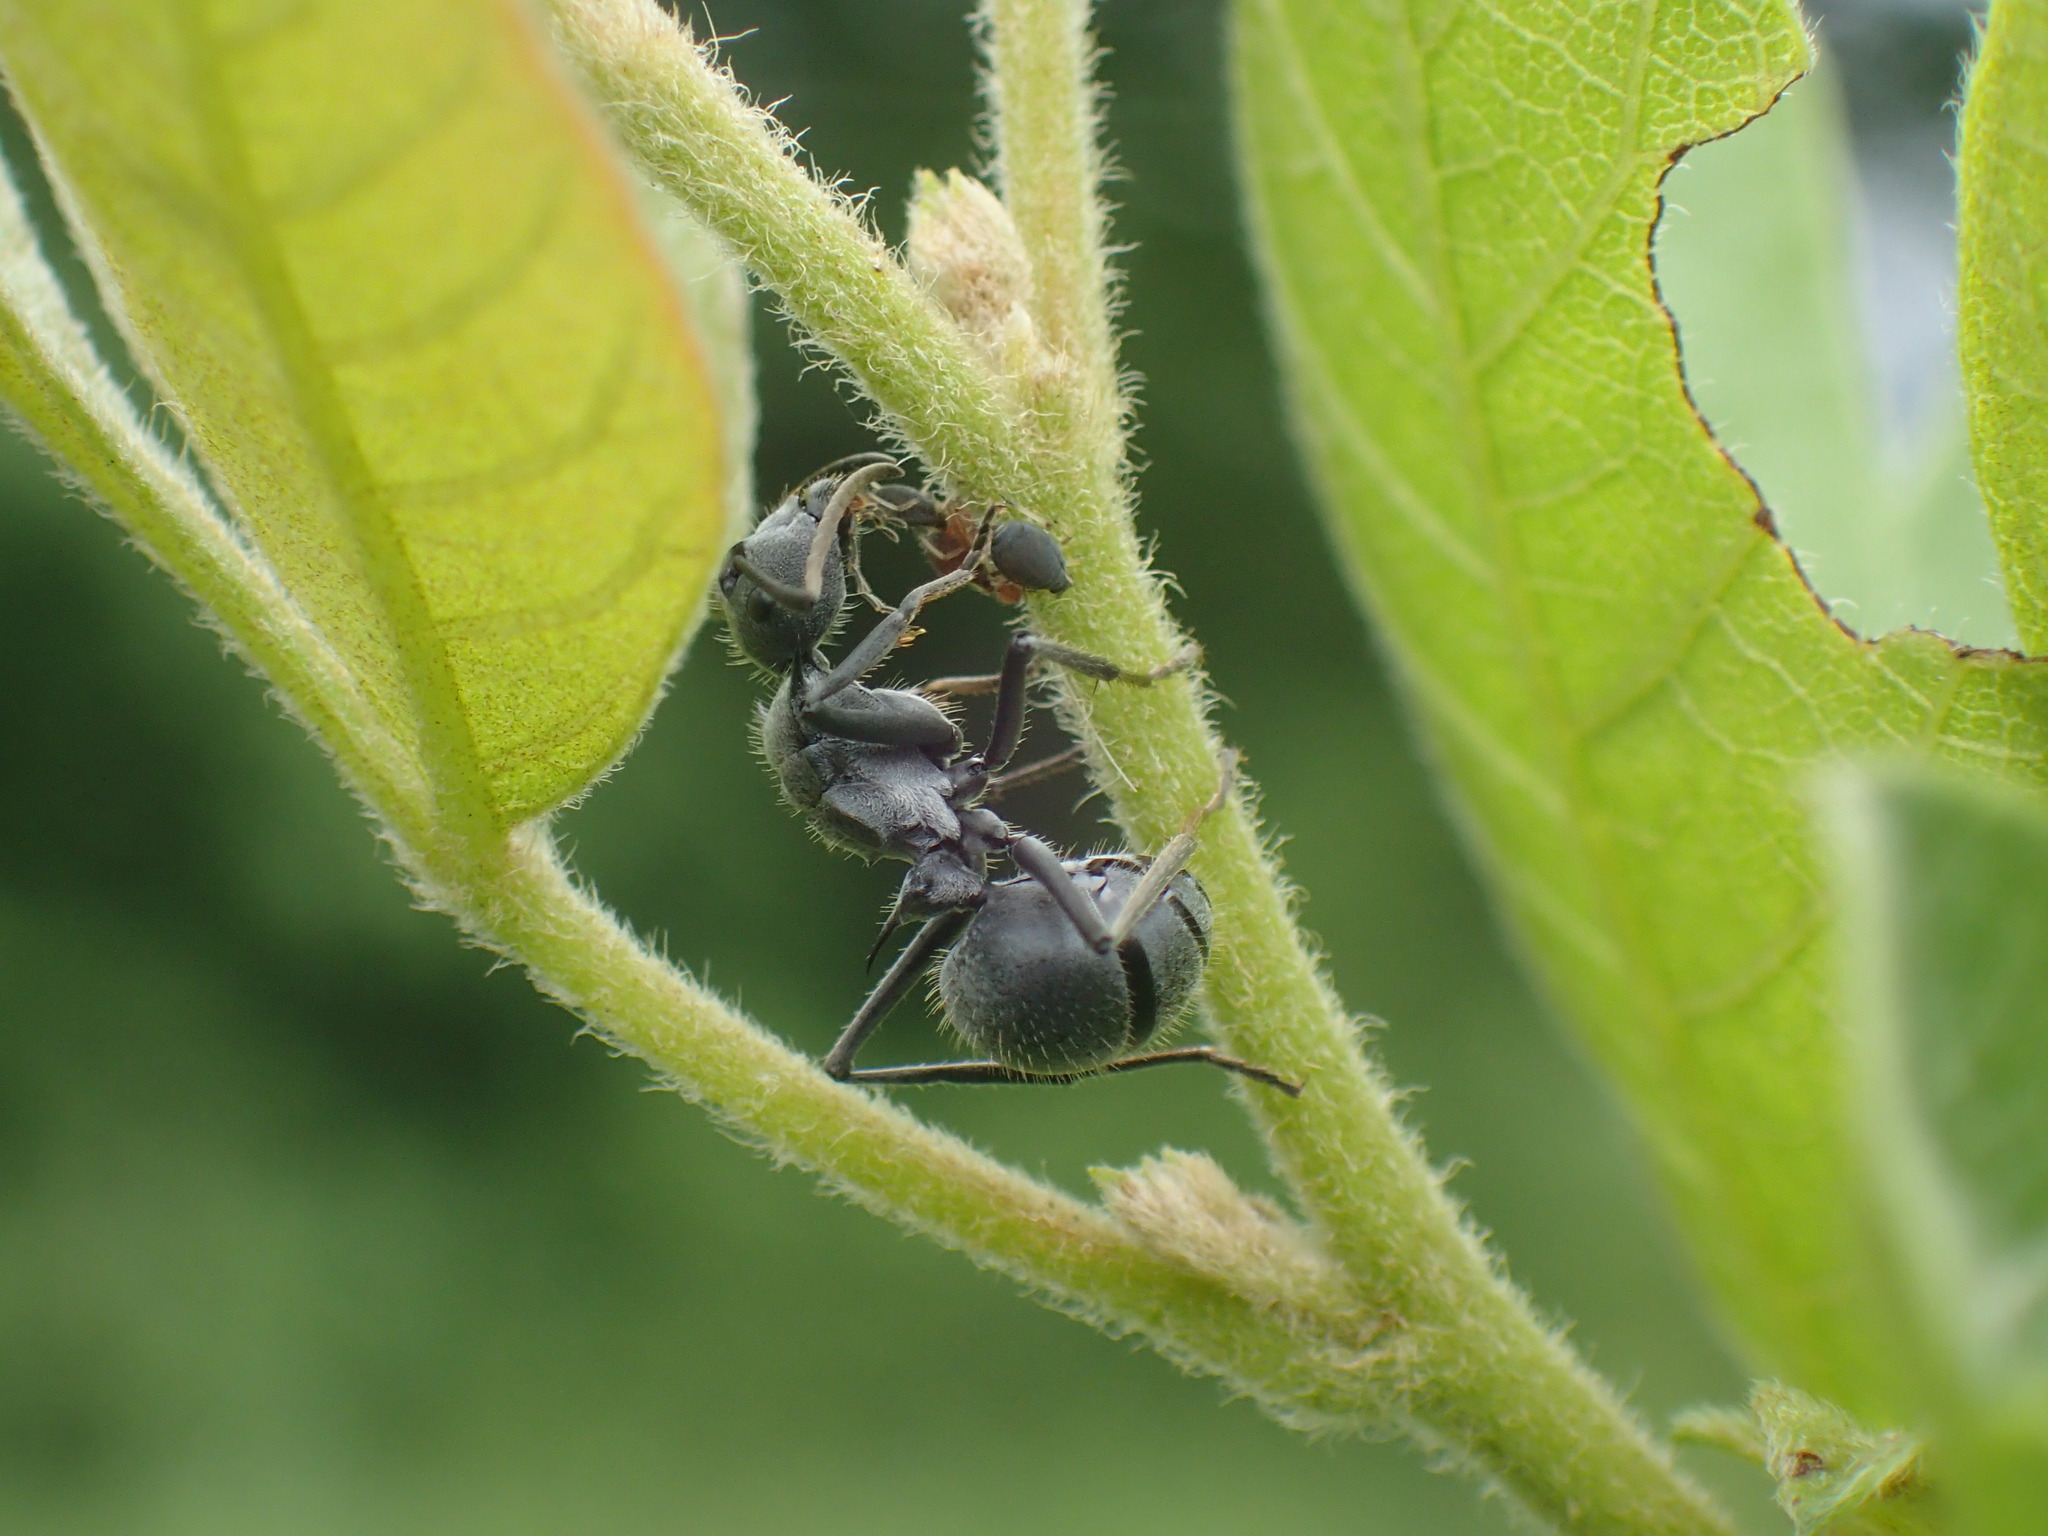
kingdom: Animalia
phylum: Arthropoda
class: Insecta
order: Hymenoptera
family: Formicidae
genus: Polyrhachis
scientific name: Polyrhachis schistacea
